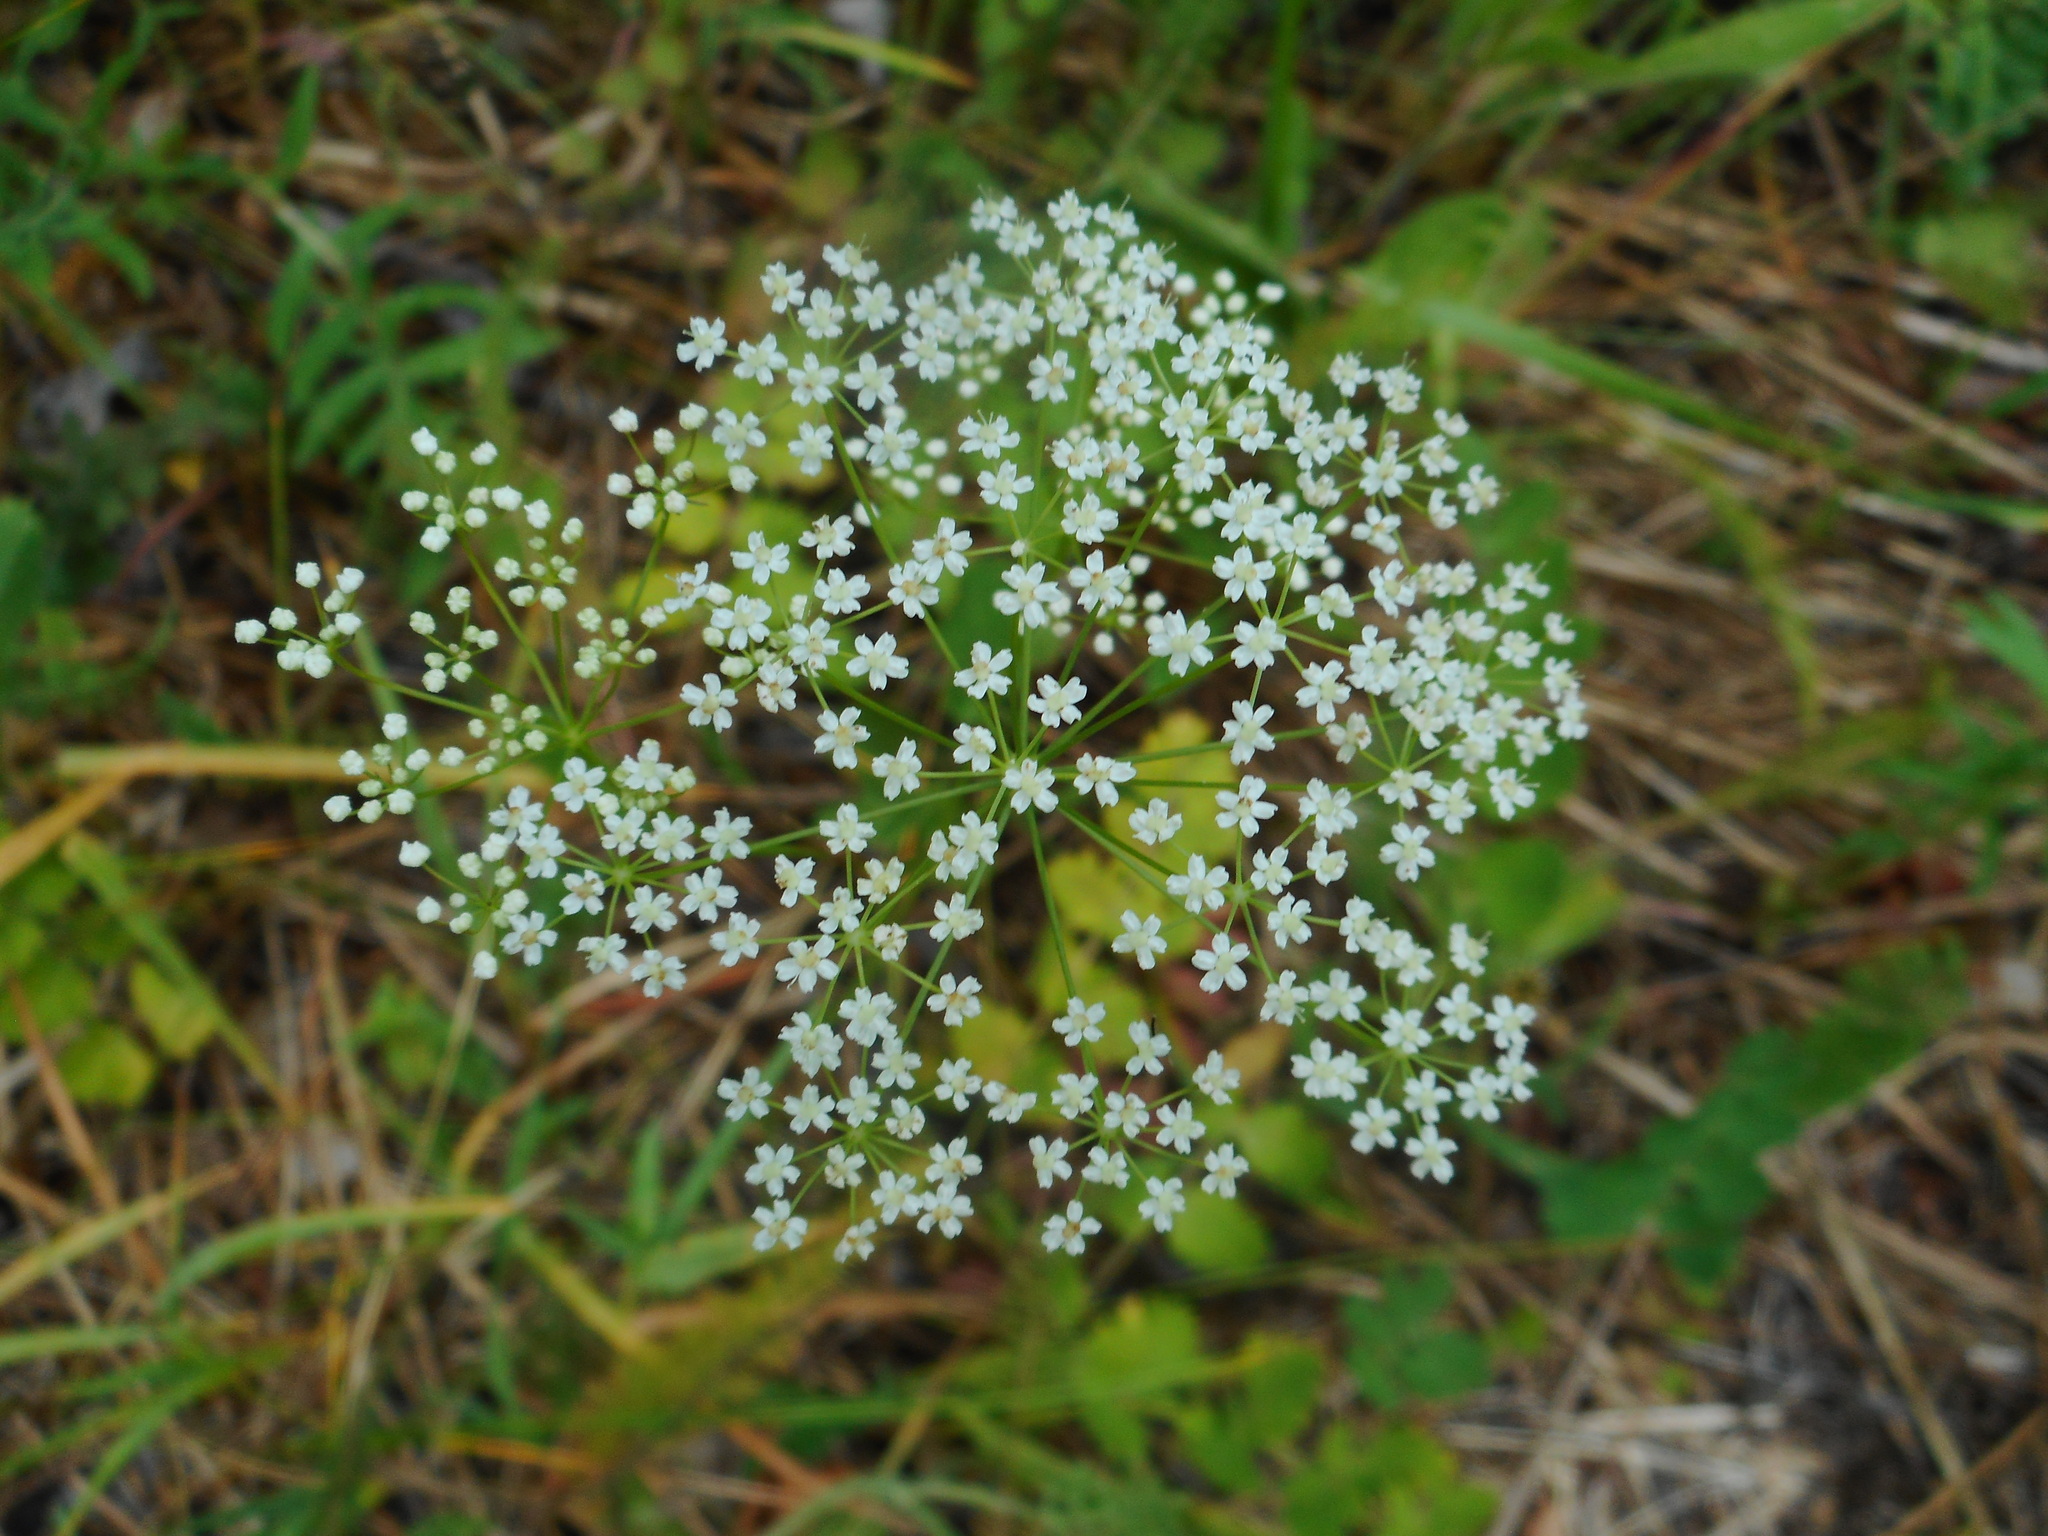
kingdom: Plantae
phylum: Tracheophyta
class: Magnoliopsida
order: Apiales
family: Apiaceae
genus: Pimpinella
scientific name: Pimpinella saxifraga
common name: Burnet-saxifrage
